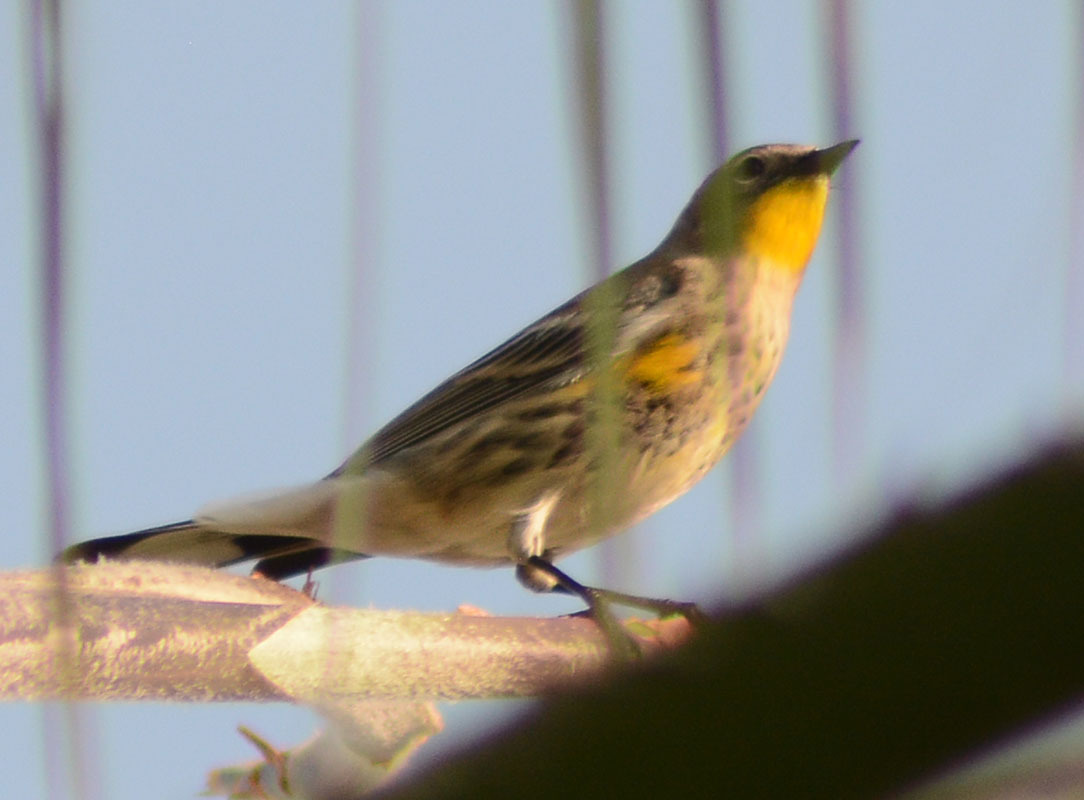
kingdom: Animalia
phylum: Chordata
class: Aves
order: Passeriformes
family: Parulidae
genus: Setophaga
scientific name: Setophaga coronata
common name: Myrtle warbler
